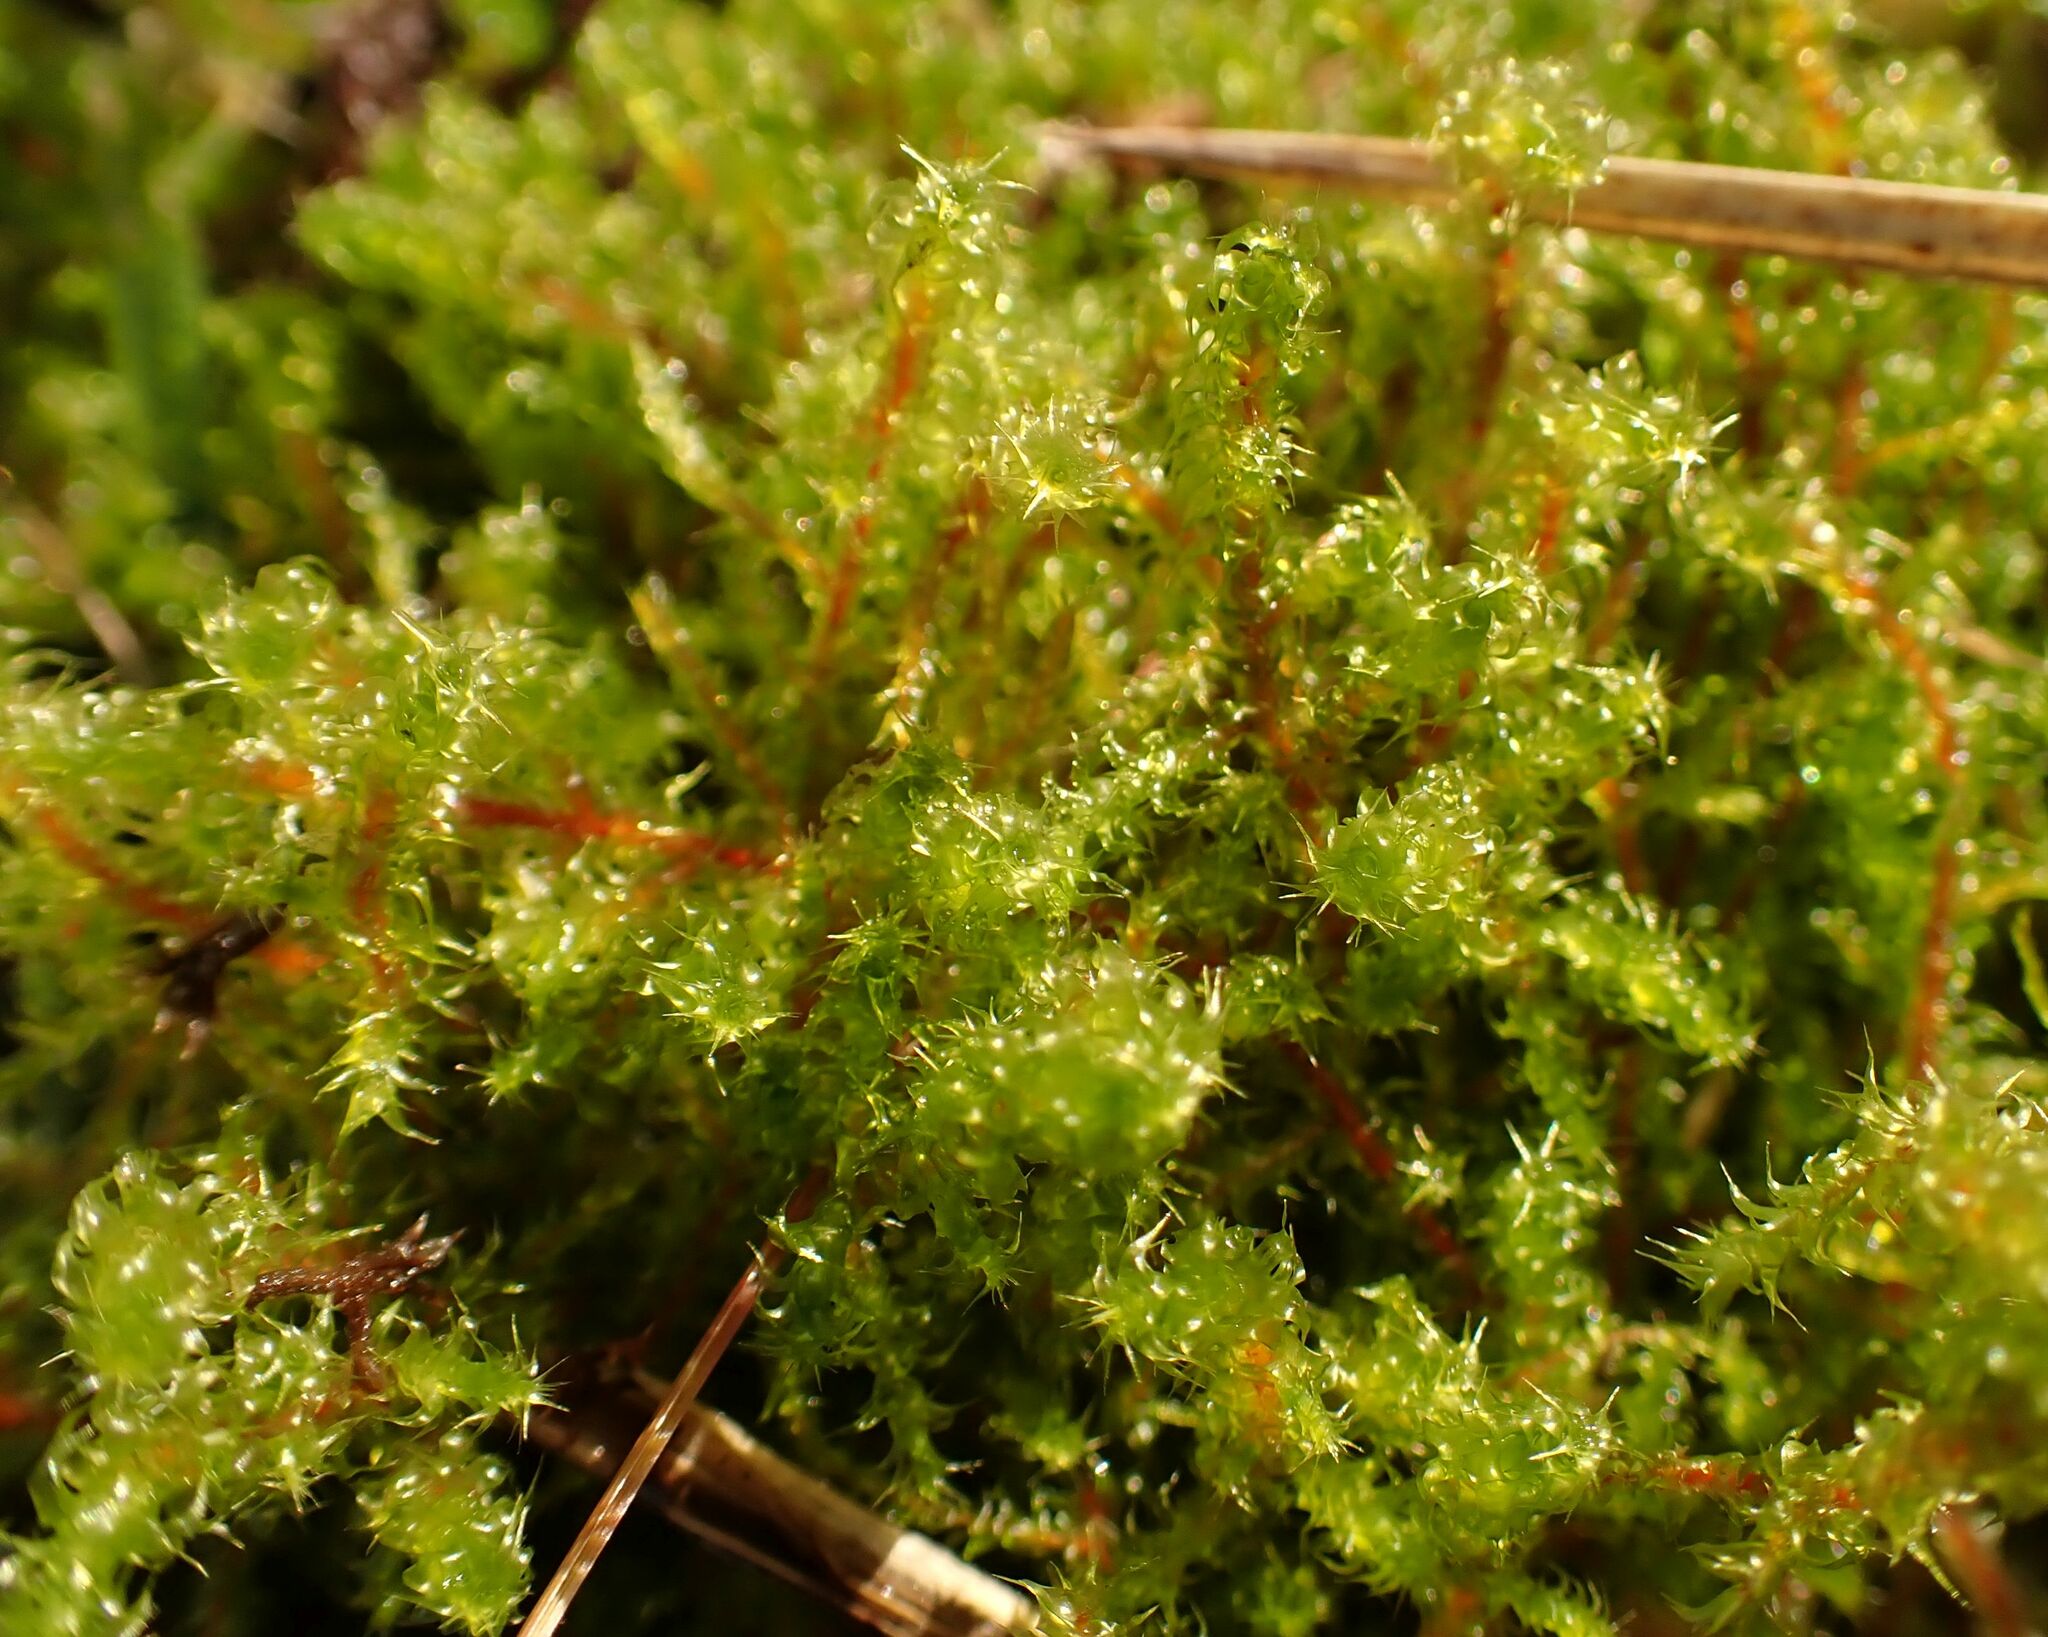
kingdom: Plantae
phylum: Bryophyta
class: Bryopsida
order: Hypnales
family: Hylocomiaceae
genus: Rhytidiadelphus
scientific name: Rhytidiadelphus squarrosus
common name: Springy turf-moss
